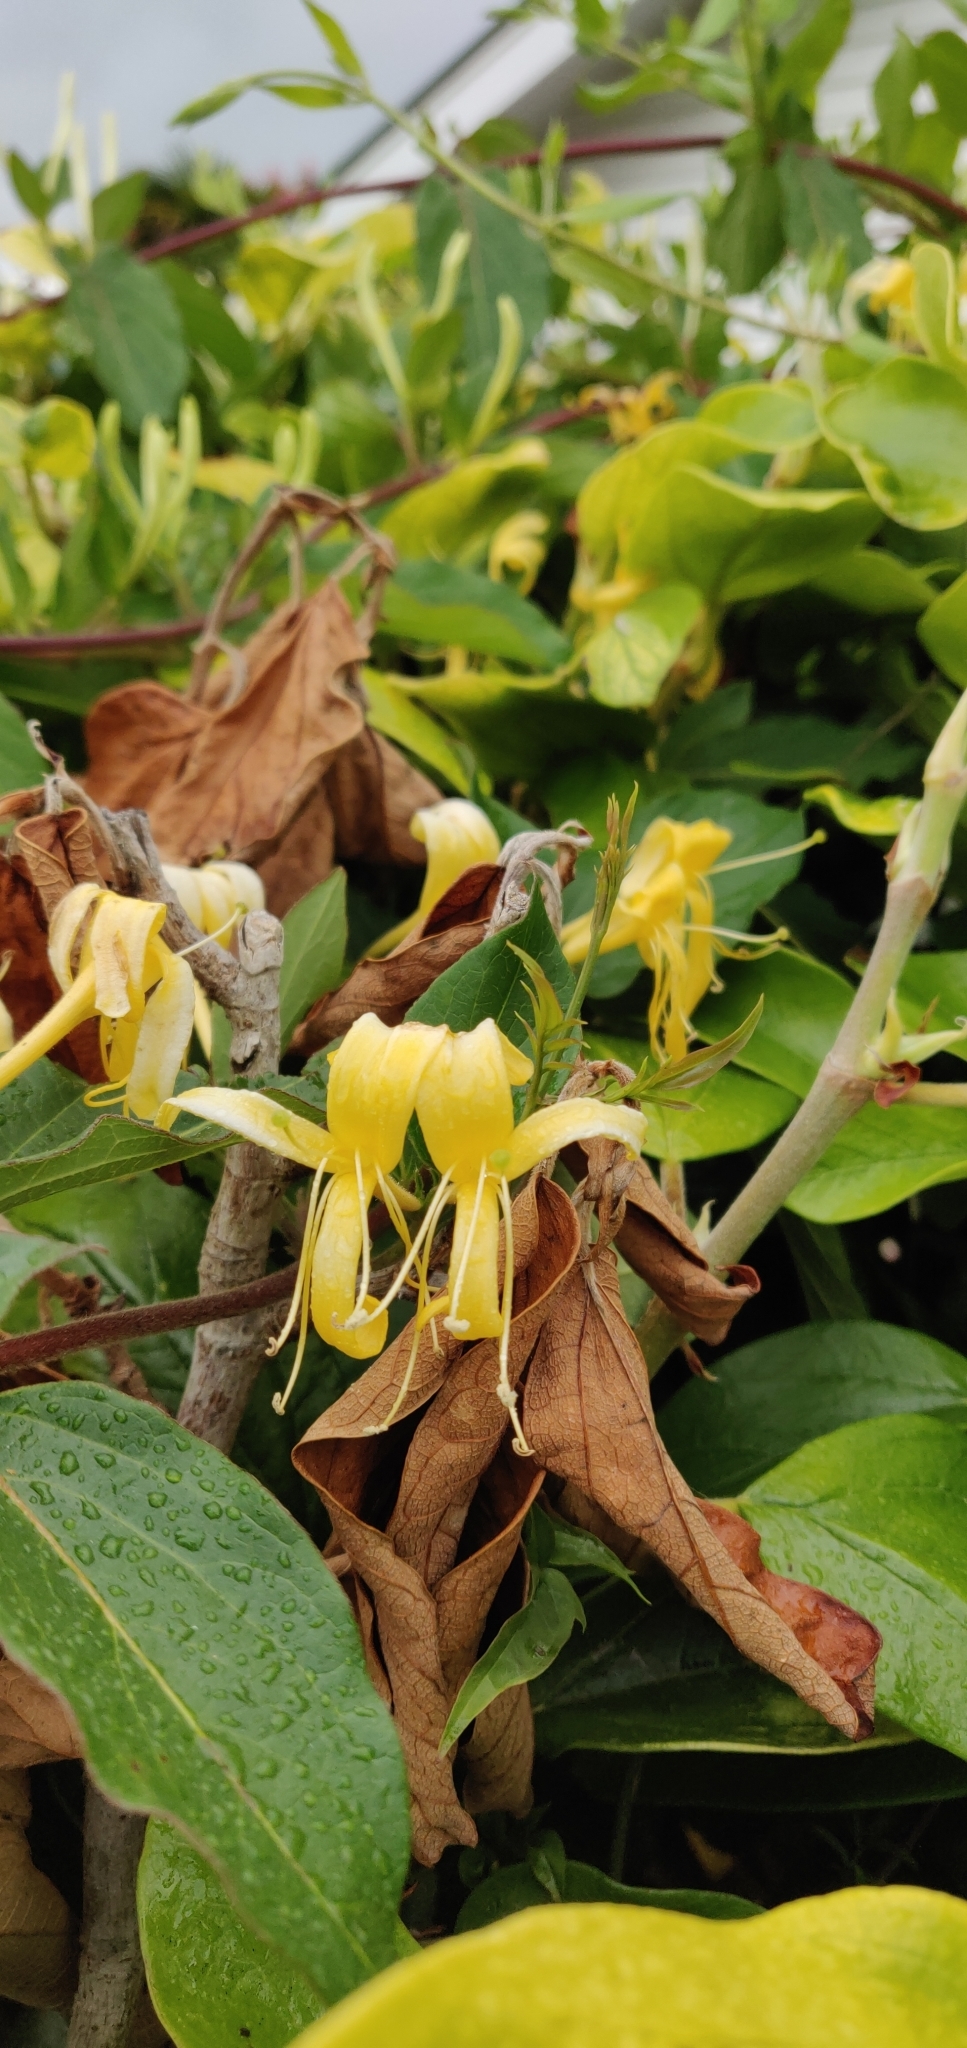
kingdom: Plantae
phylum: Tracheophyta
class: Magnoliopsida
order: Dipsacales
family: Caprifoliaceae
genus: Lonicera
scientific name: Lonicera japonica
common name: Japanese honeysuckle
